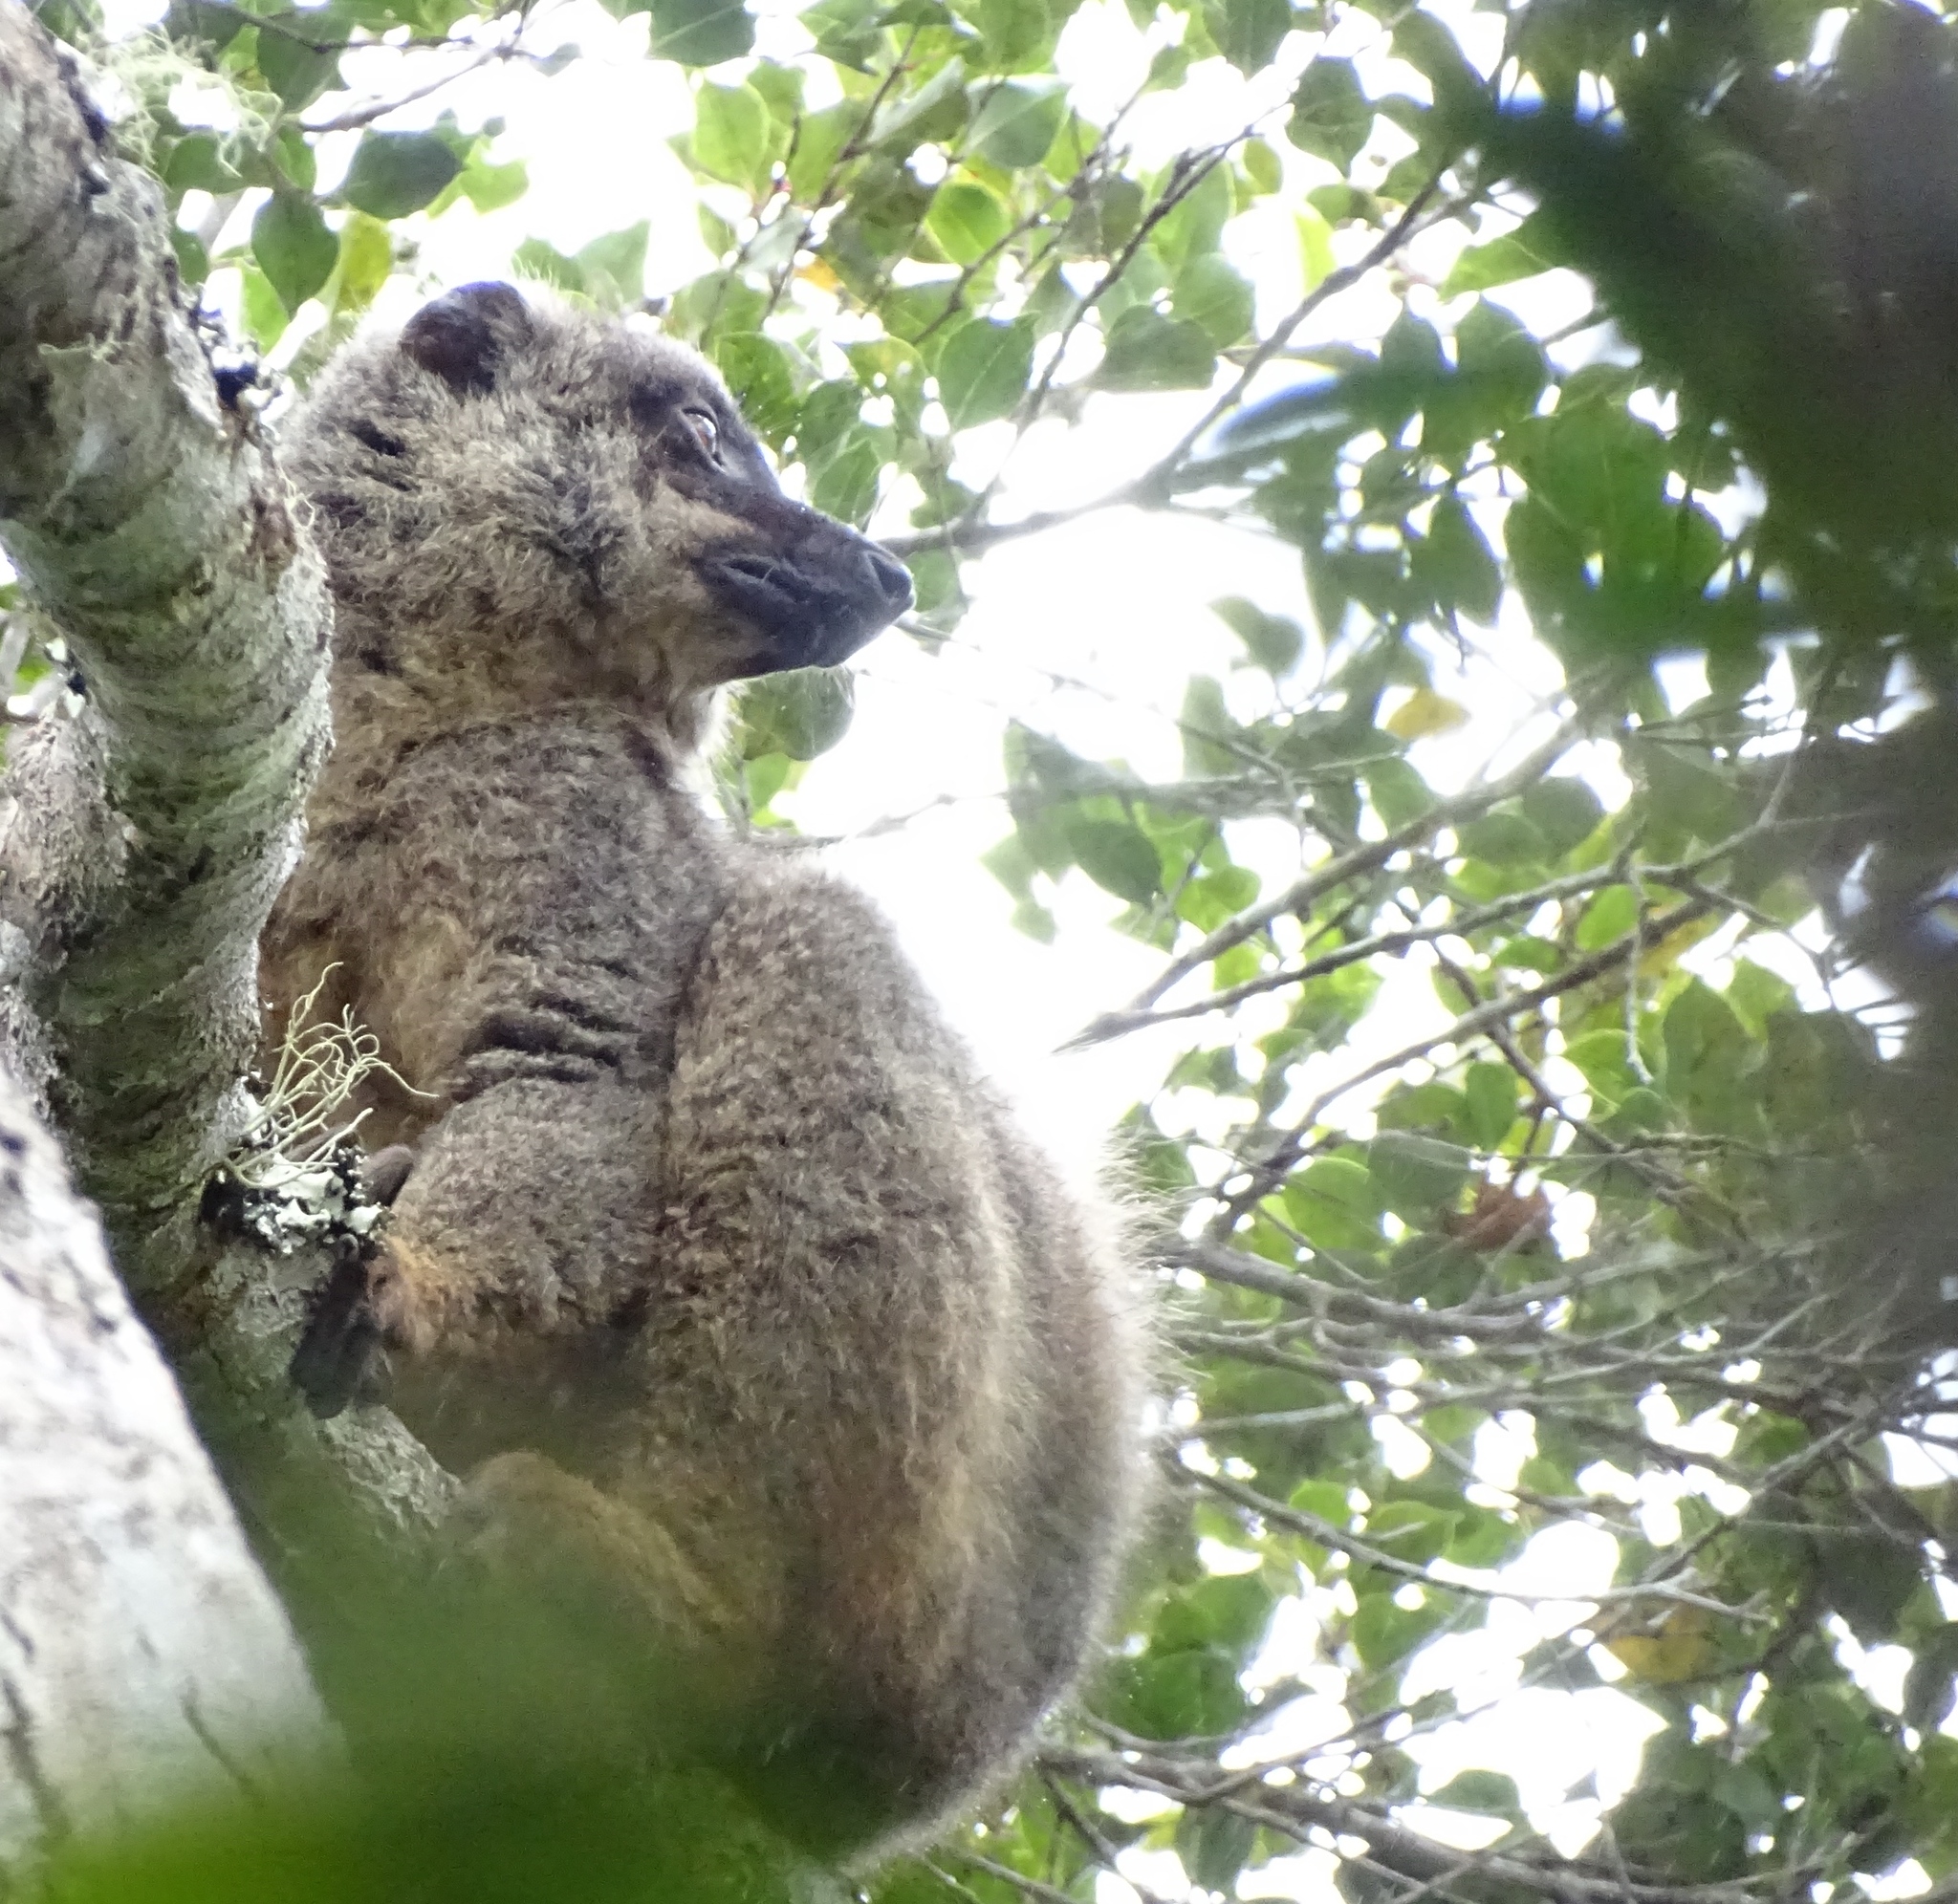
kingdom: Animalia
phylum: Chordata
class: Mammalia
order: Primates
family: Lemuridae
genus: Eulemur
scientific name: Eulemur fulvus
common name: Brown lemur
